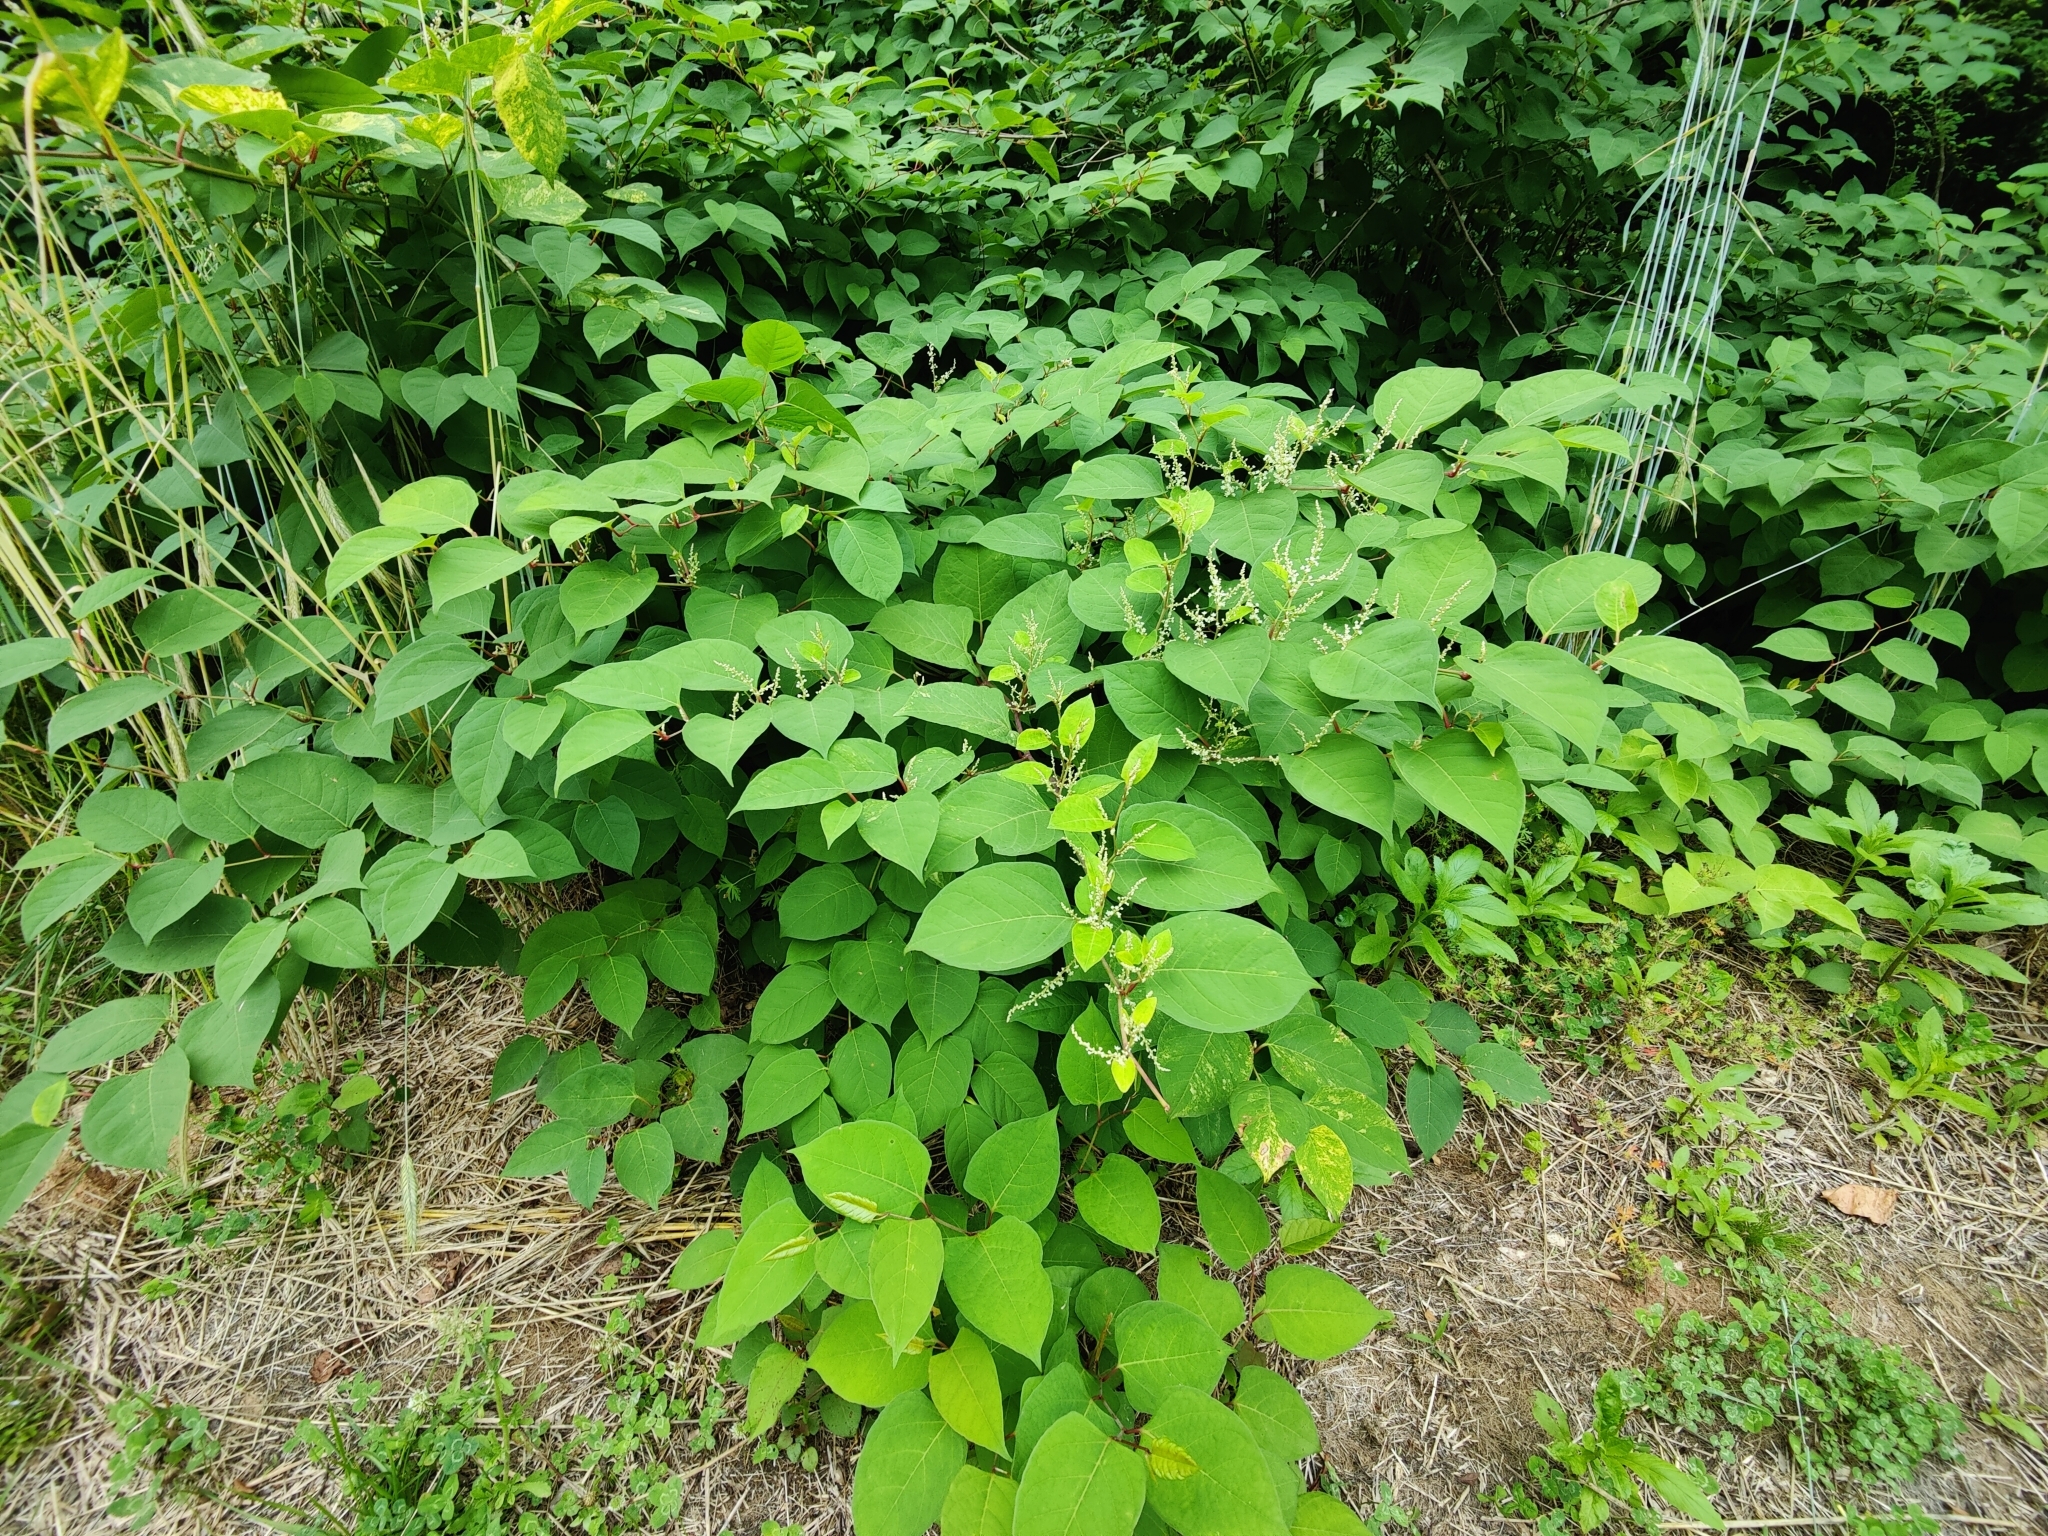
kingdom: Plantae
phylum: Tracheophyta
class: Magnoliopsida
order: Caryophyllales
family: Polygonaceae
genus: Reynoutria
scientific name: Reynoutria japonica
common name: Japanese knotweed
